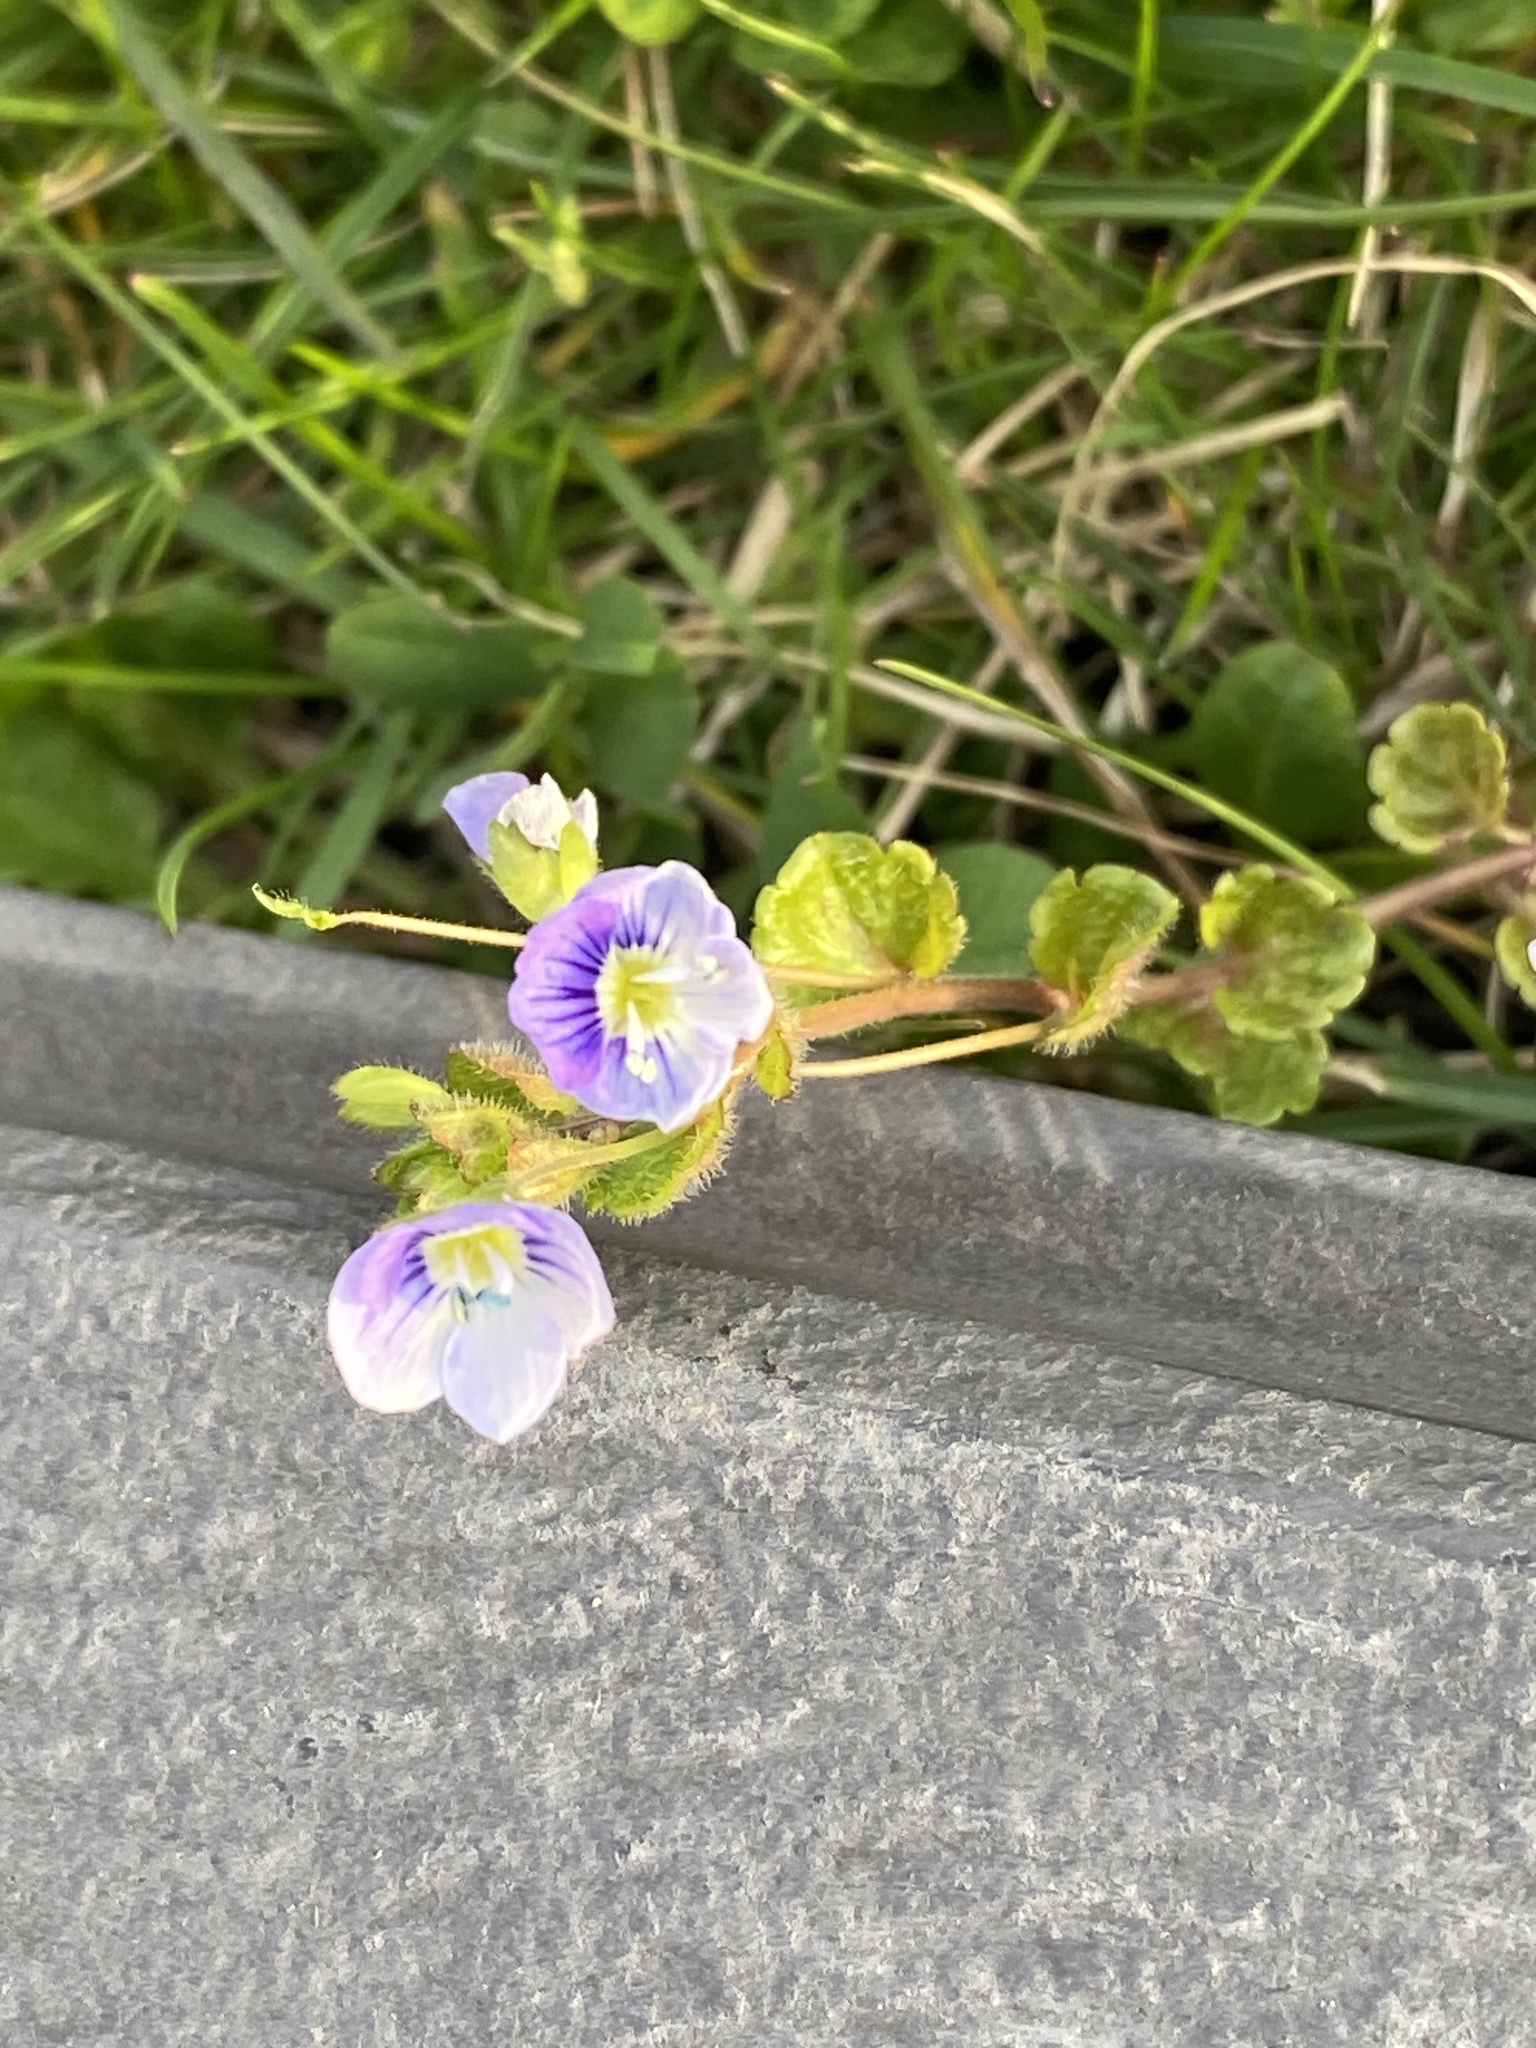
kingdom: Plantae
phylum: Tracheophyta
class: Magnoliopsida
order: Lamiales
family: Plantaginaceae
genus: Veronica
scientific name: Veronica filiformis
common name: Slender speedwell
